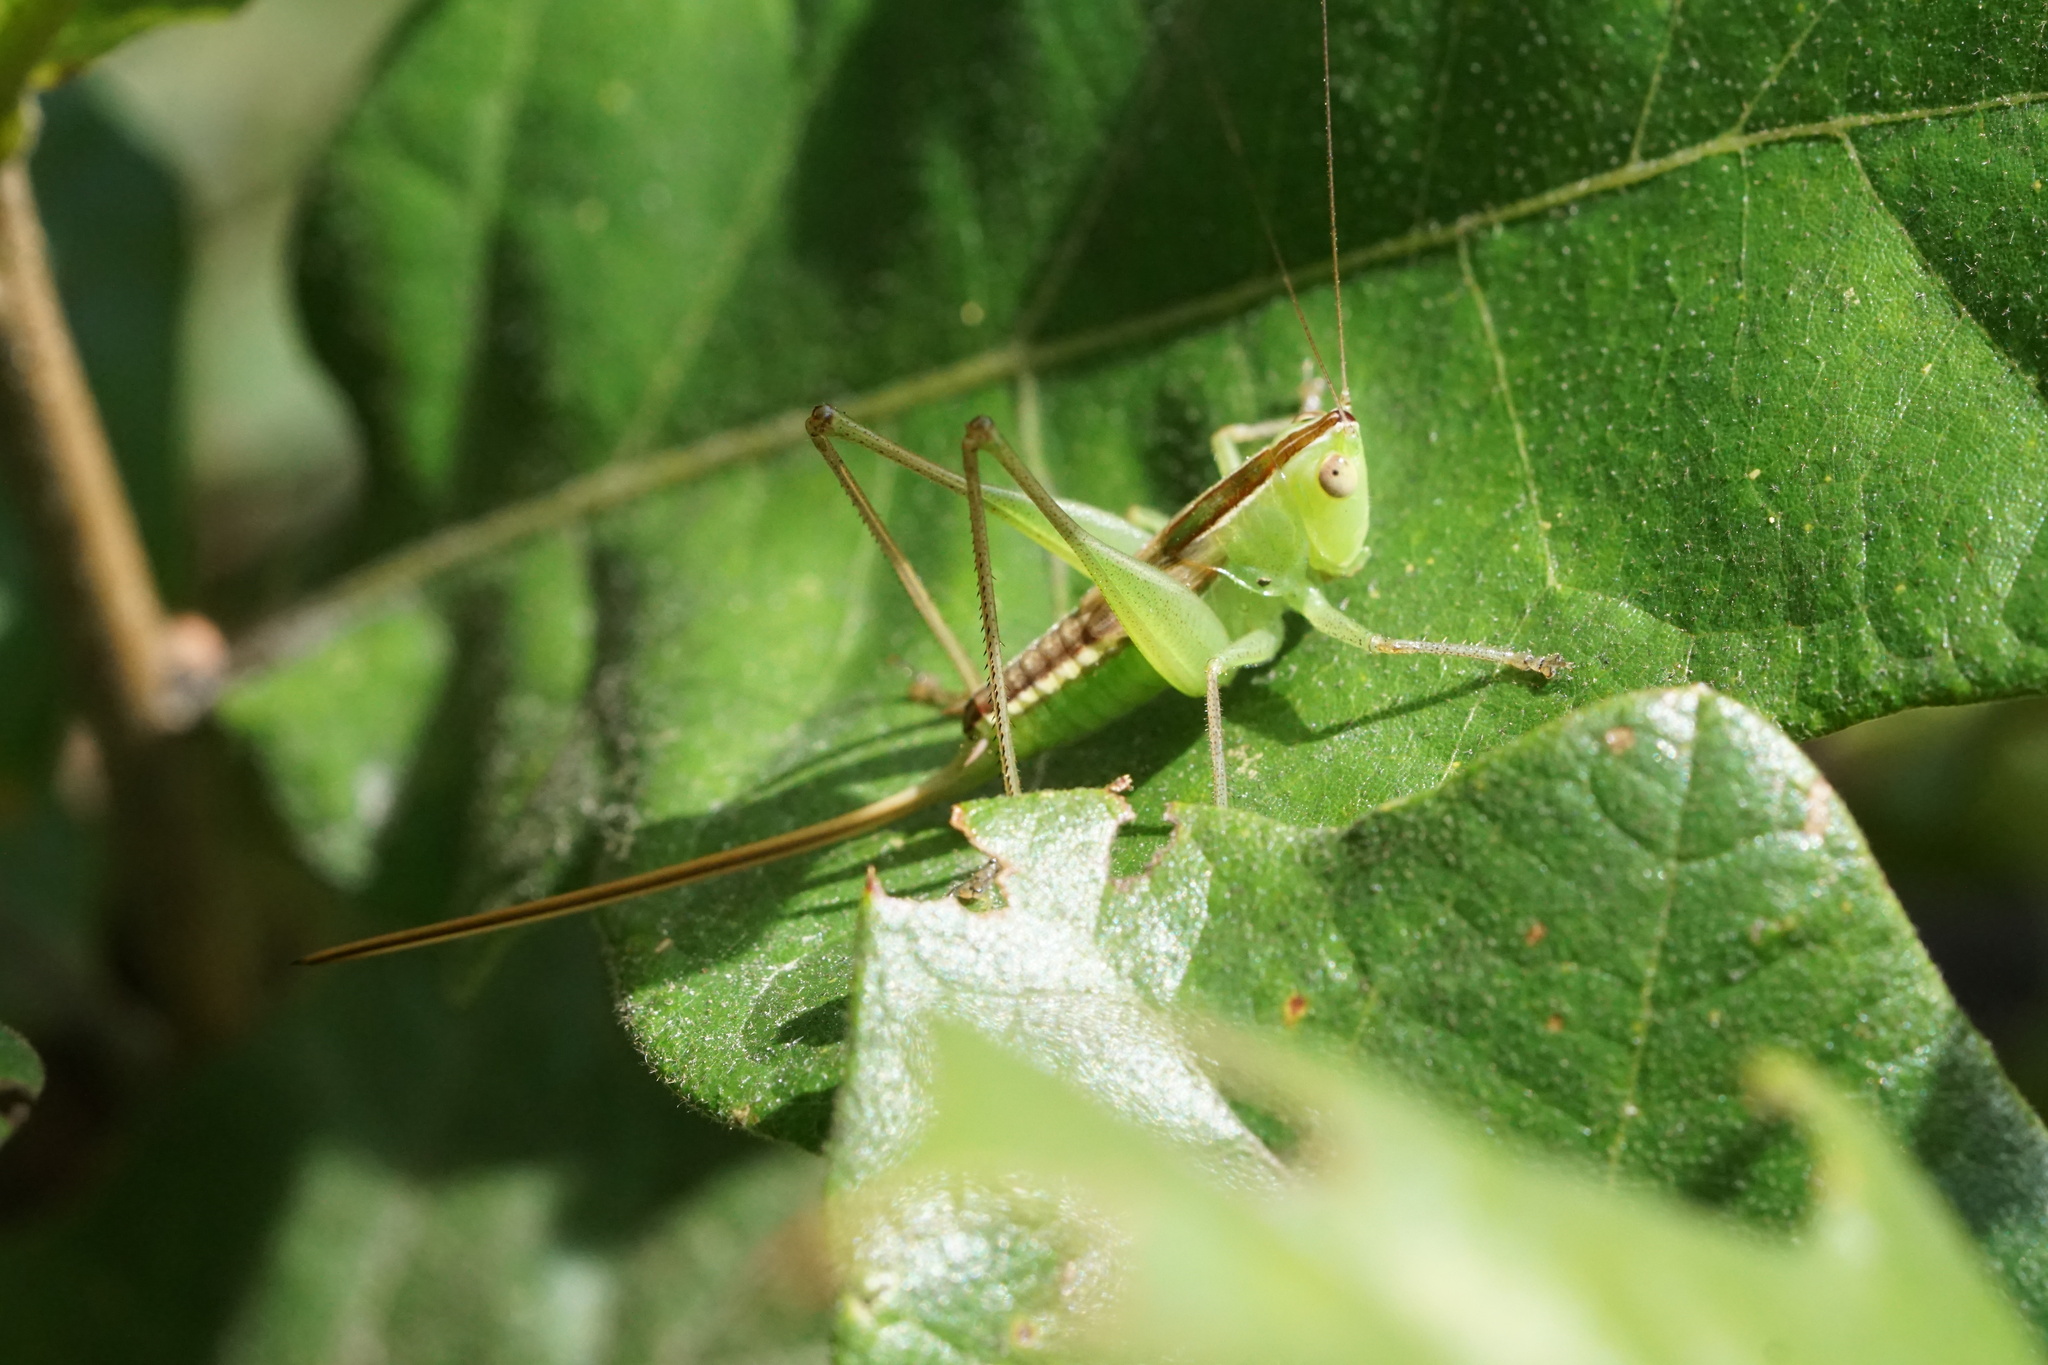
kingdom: Animalia
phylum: Arthropoda
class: Insecta
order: Orthoptera
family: Tettigoniidae
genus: Conocephalus
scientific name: Conocephalus strictus
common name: Straight-lanced katydid
